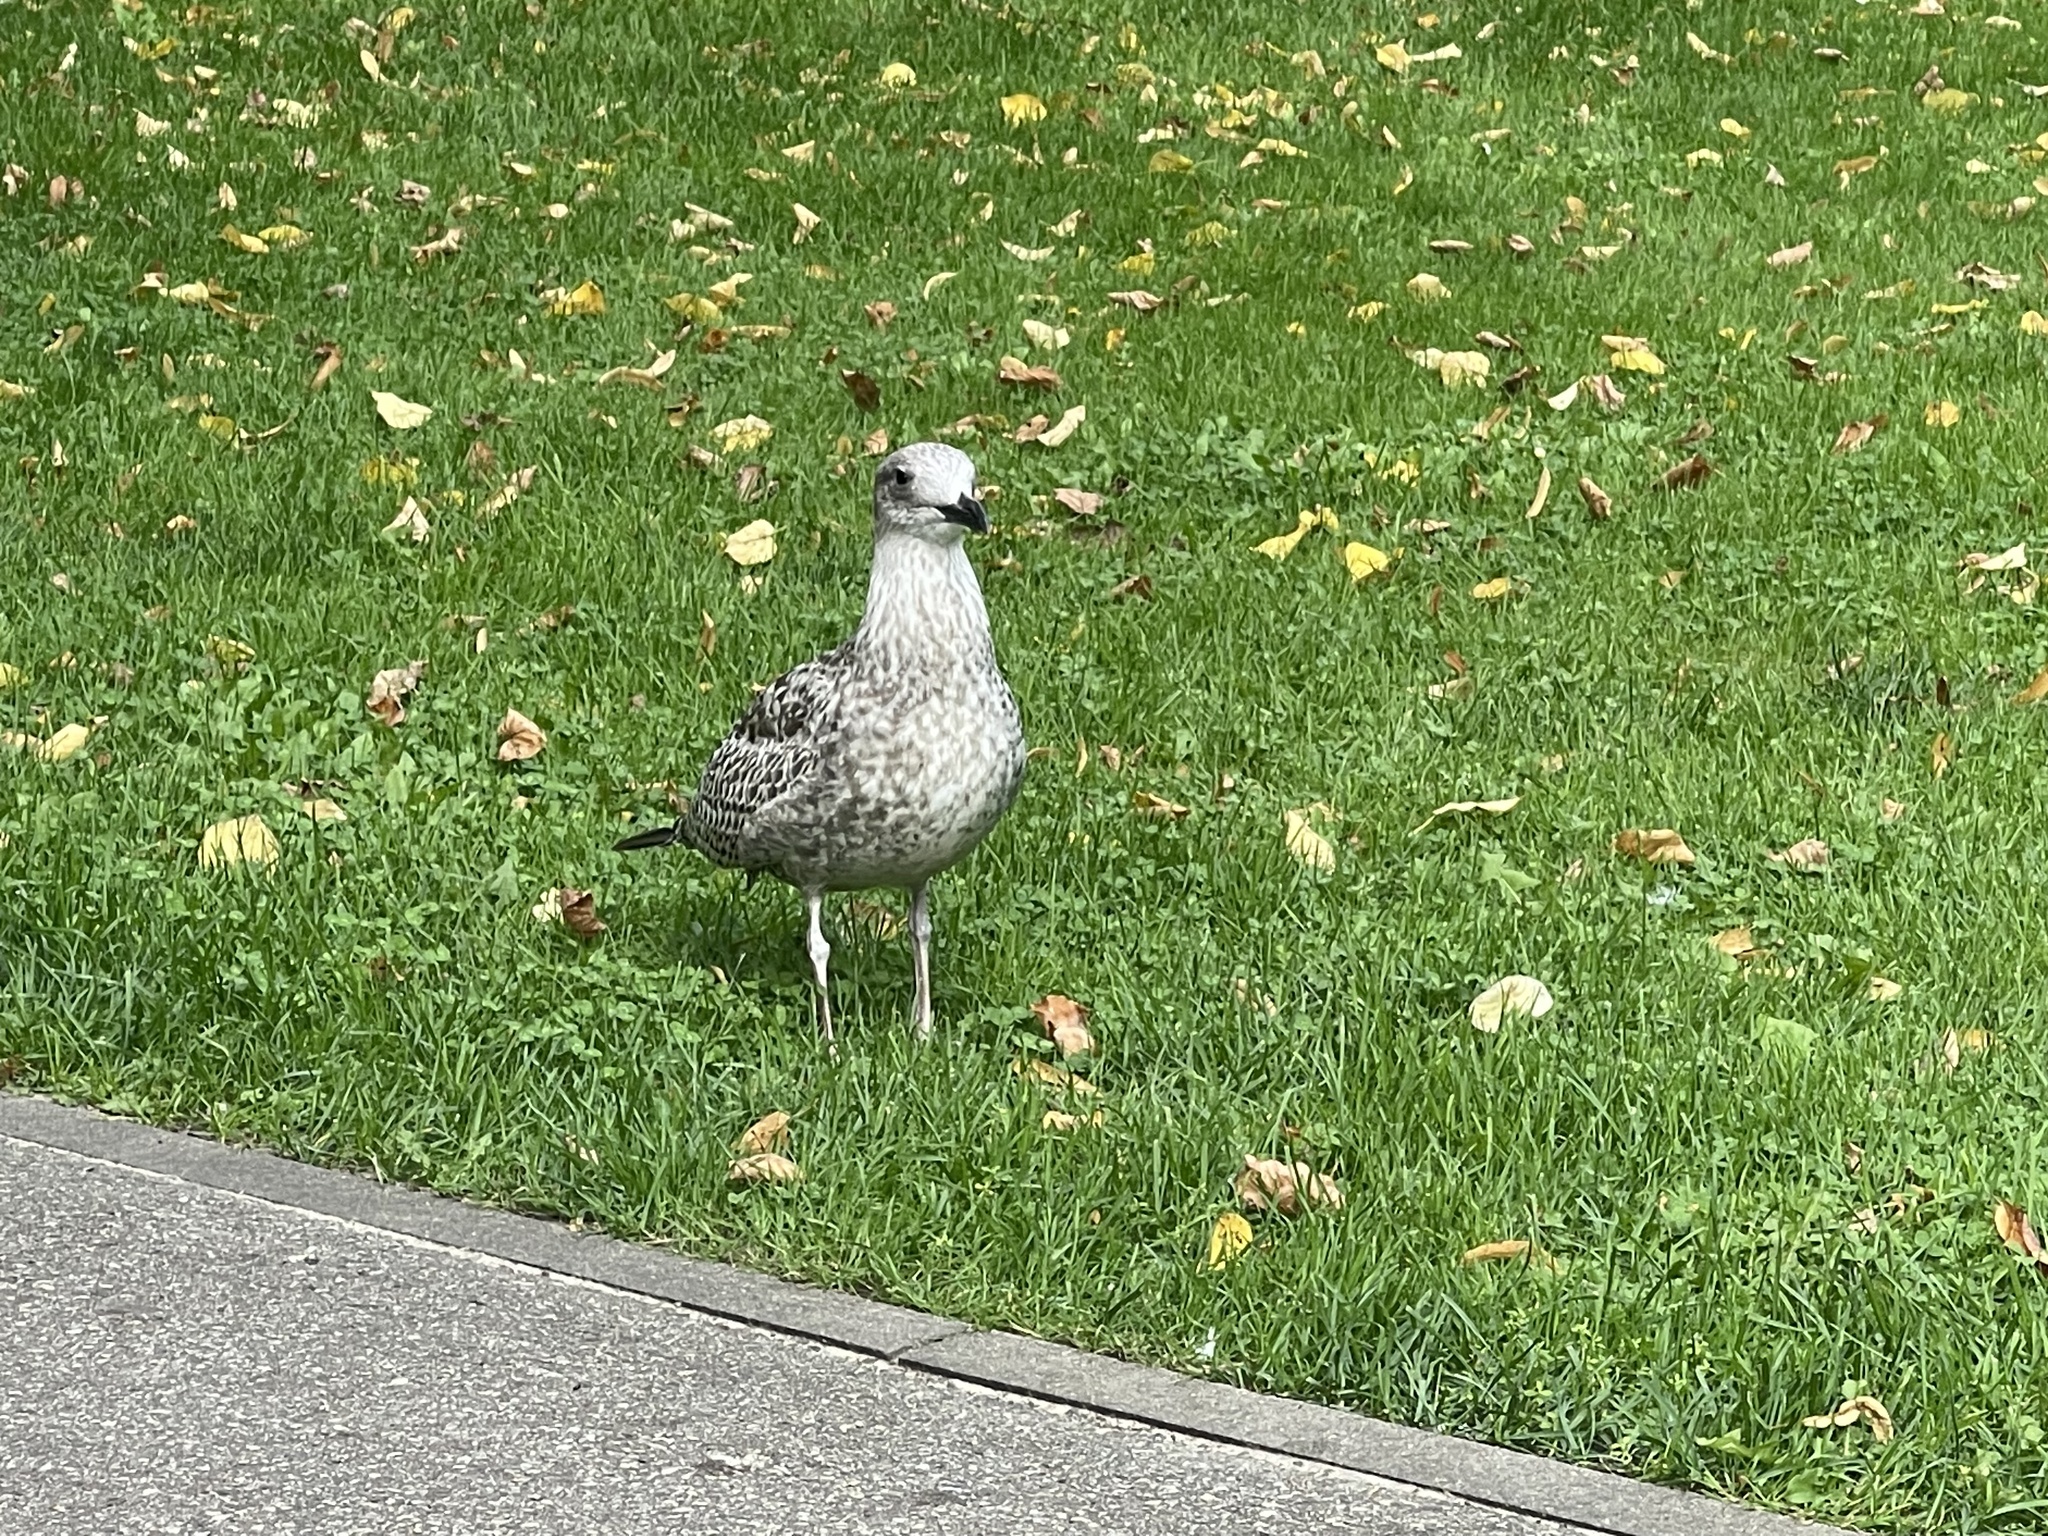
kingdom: Animalia
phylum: Chordata
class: Aves
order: Charadriiformes
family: Laridae
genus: Larus
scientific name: Larus argentatus
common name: Herring gull
